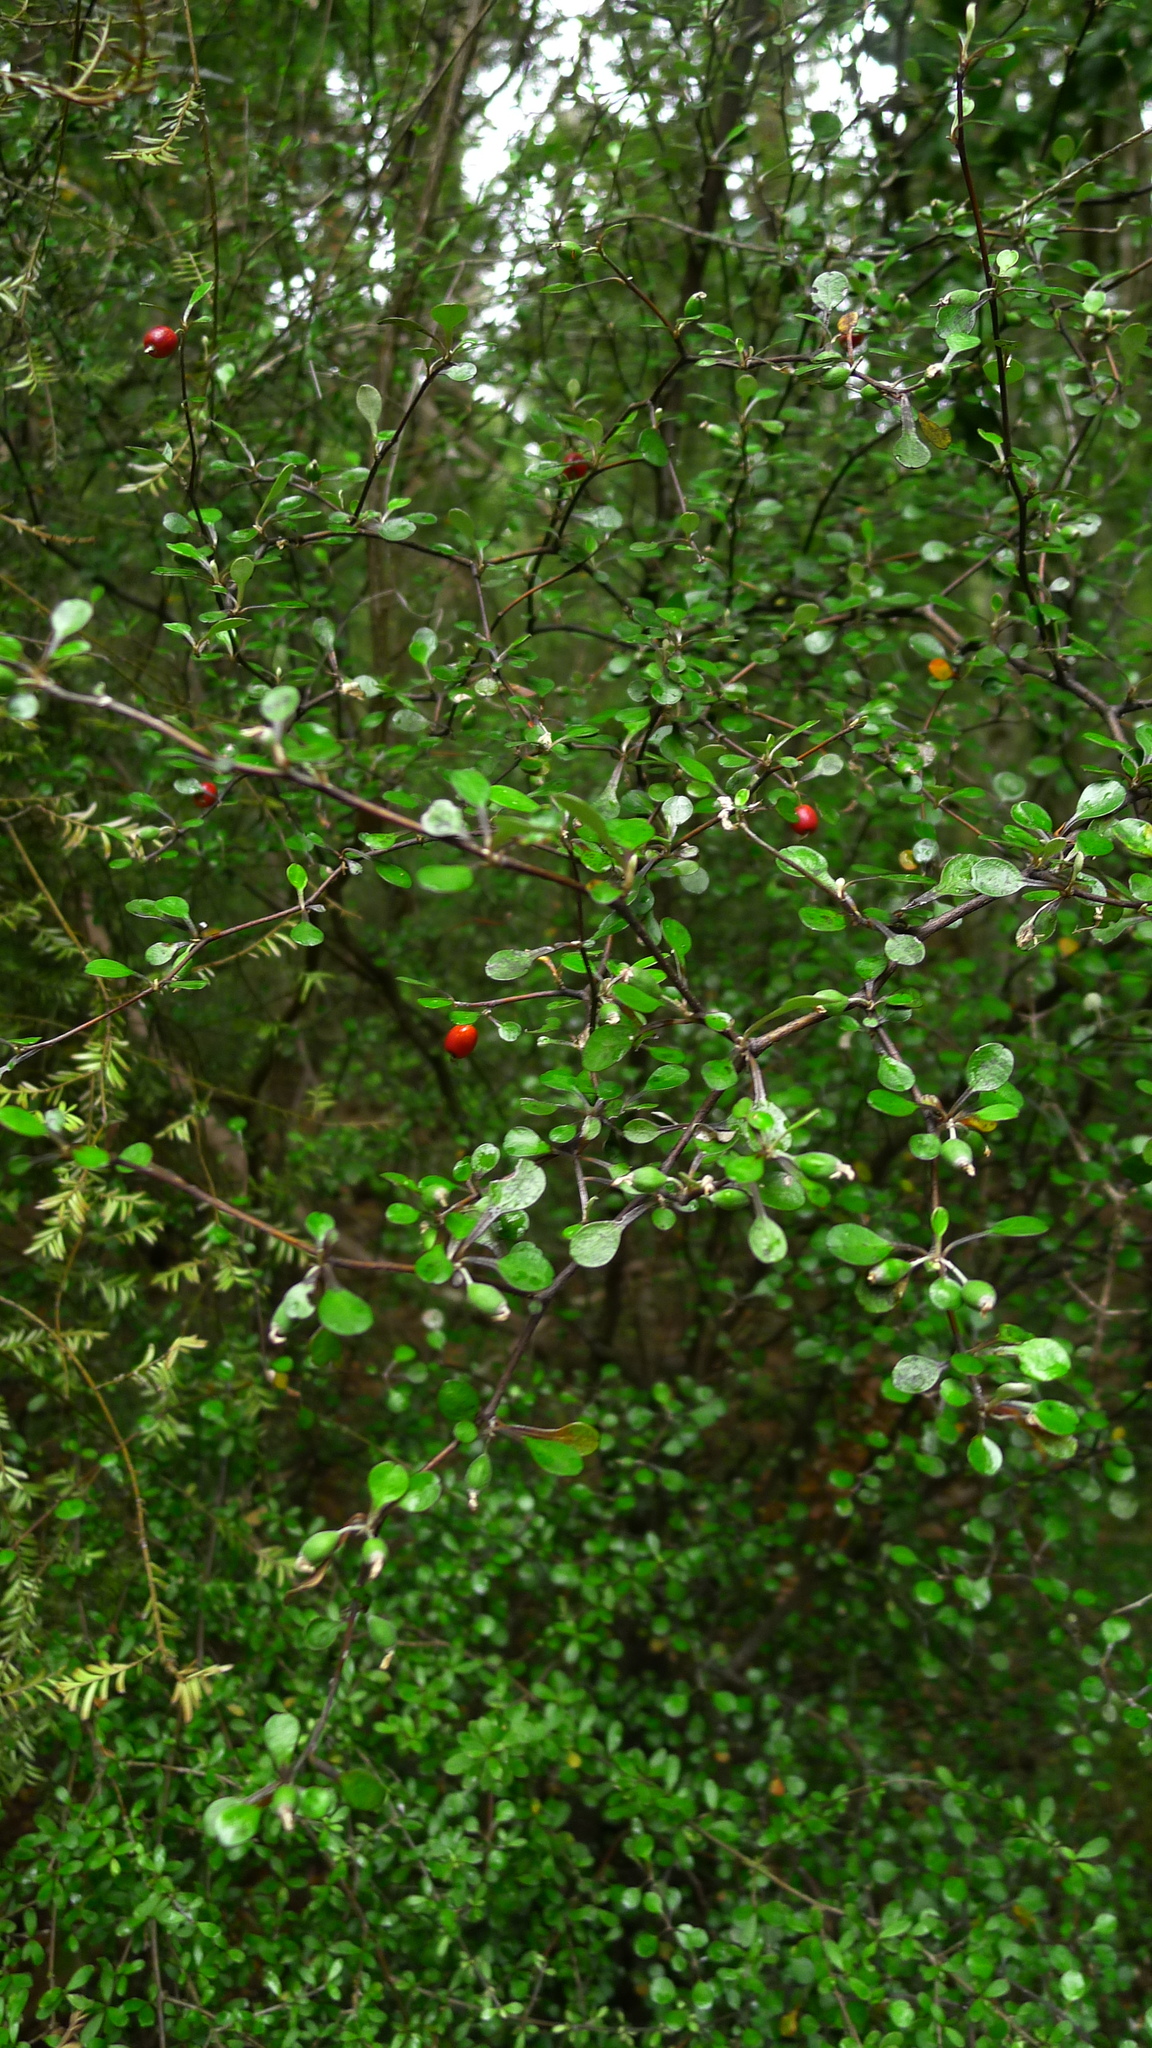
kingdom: Plantae
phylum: Tracheophyta
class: Magnoliopsida
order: Asterales
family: Argophyllaceae
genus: Corokia
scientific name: Corokia cotoneaster
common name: Wire nettingbush
